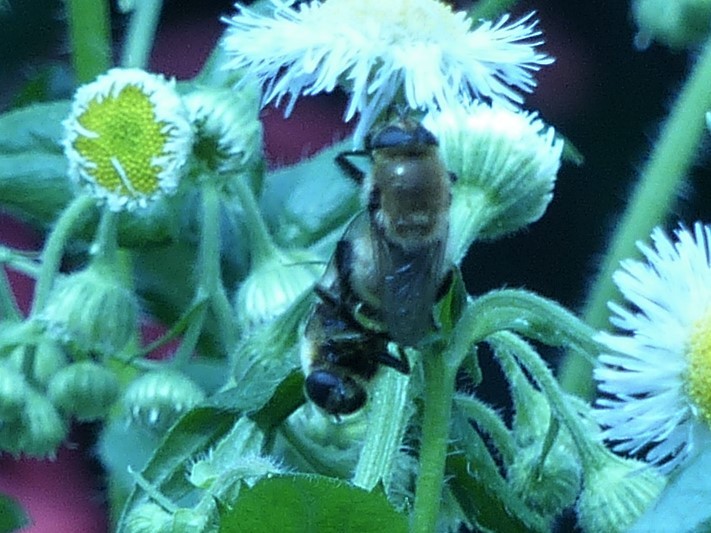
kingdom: Animalia
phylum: Arthropoda
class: Insecta
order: Diptera
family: Syrphidae
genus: Merodon
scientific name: Merodon equestris
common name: Greater bulb-fly
